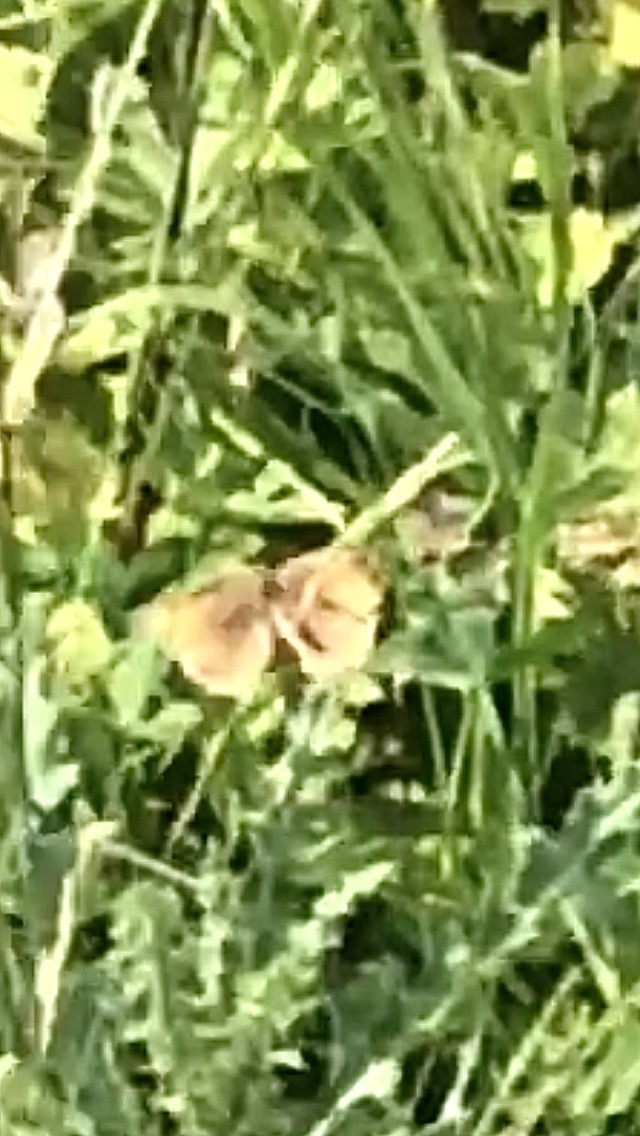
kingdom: Animalia
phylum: Arthropoda
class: Insecta
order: Lepidoptera
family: Satyridae
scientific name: Satyridae
